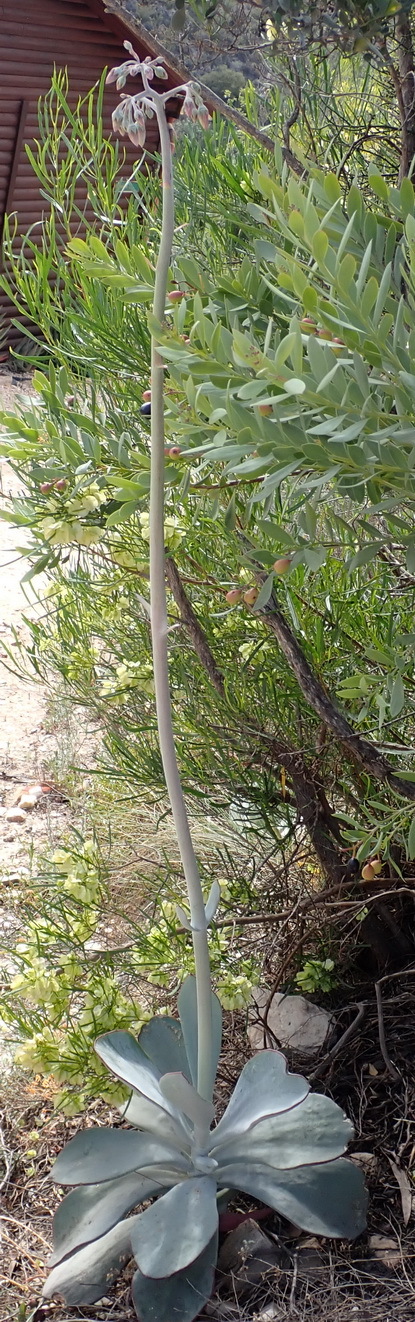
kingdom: Plantae
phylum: Tracheophyta
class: Magnoliopsida
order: Saxifragales
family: Crassulaceae
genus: Cotyledon
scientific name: Cotyledon orbiculata
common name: Pig's ear
